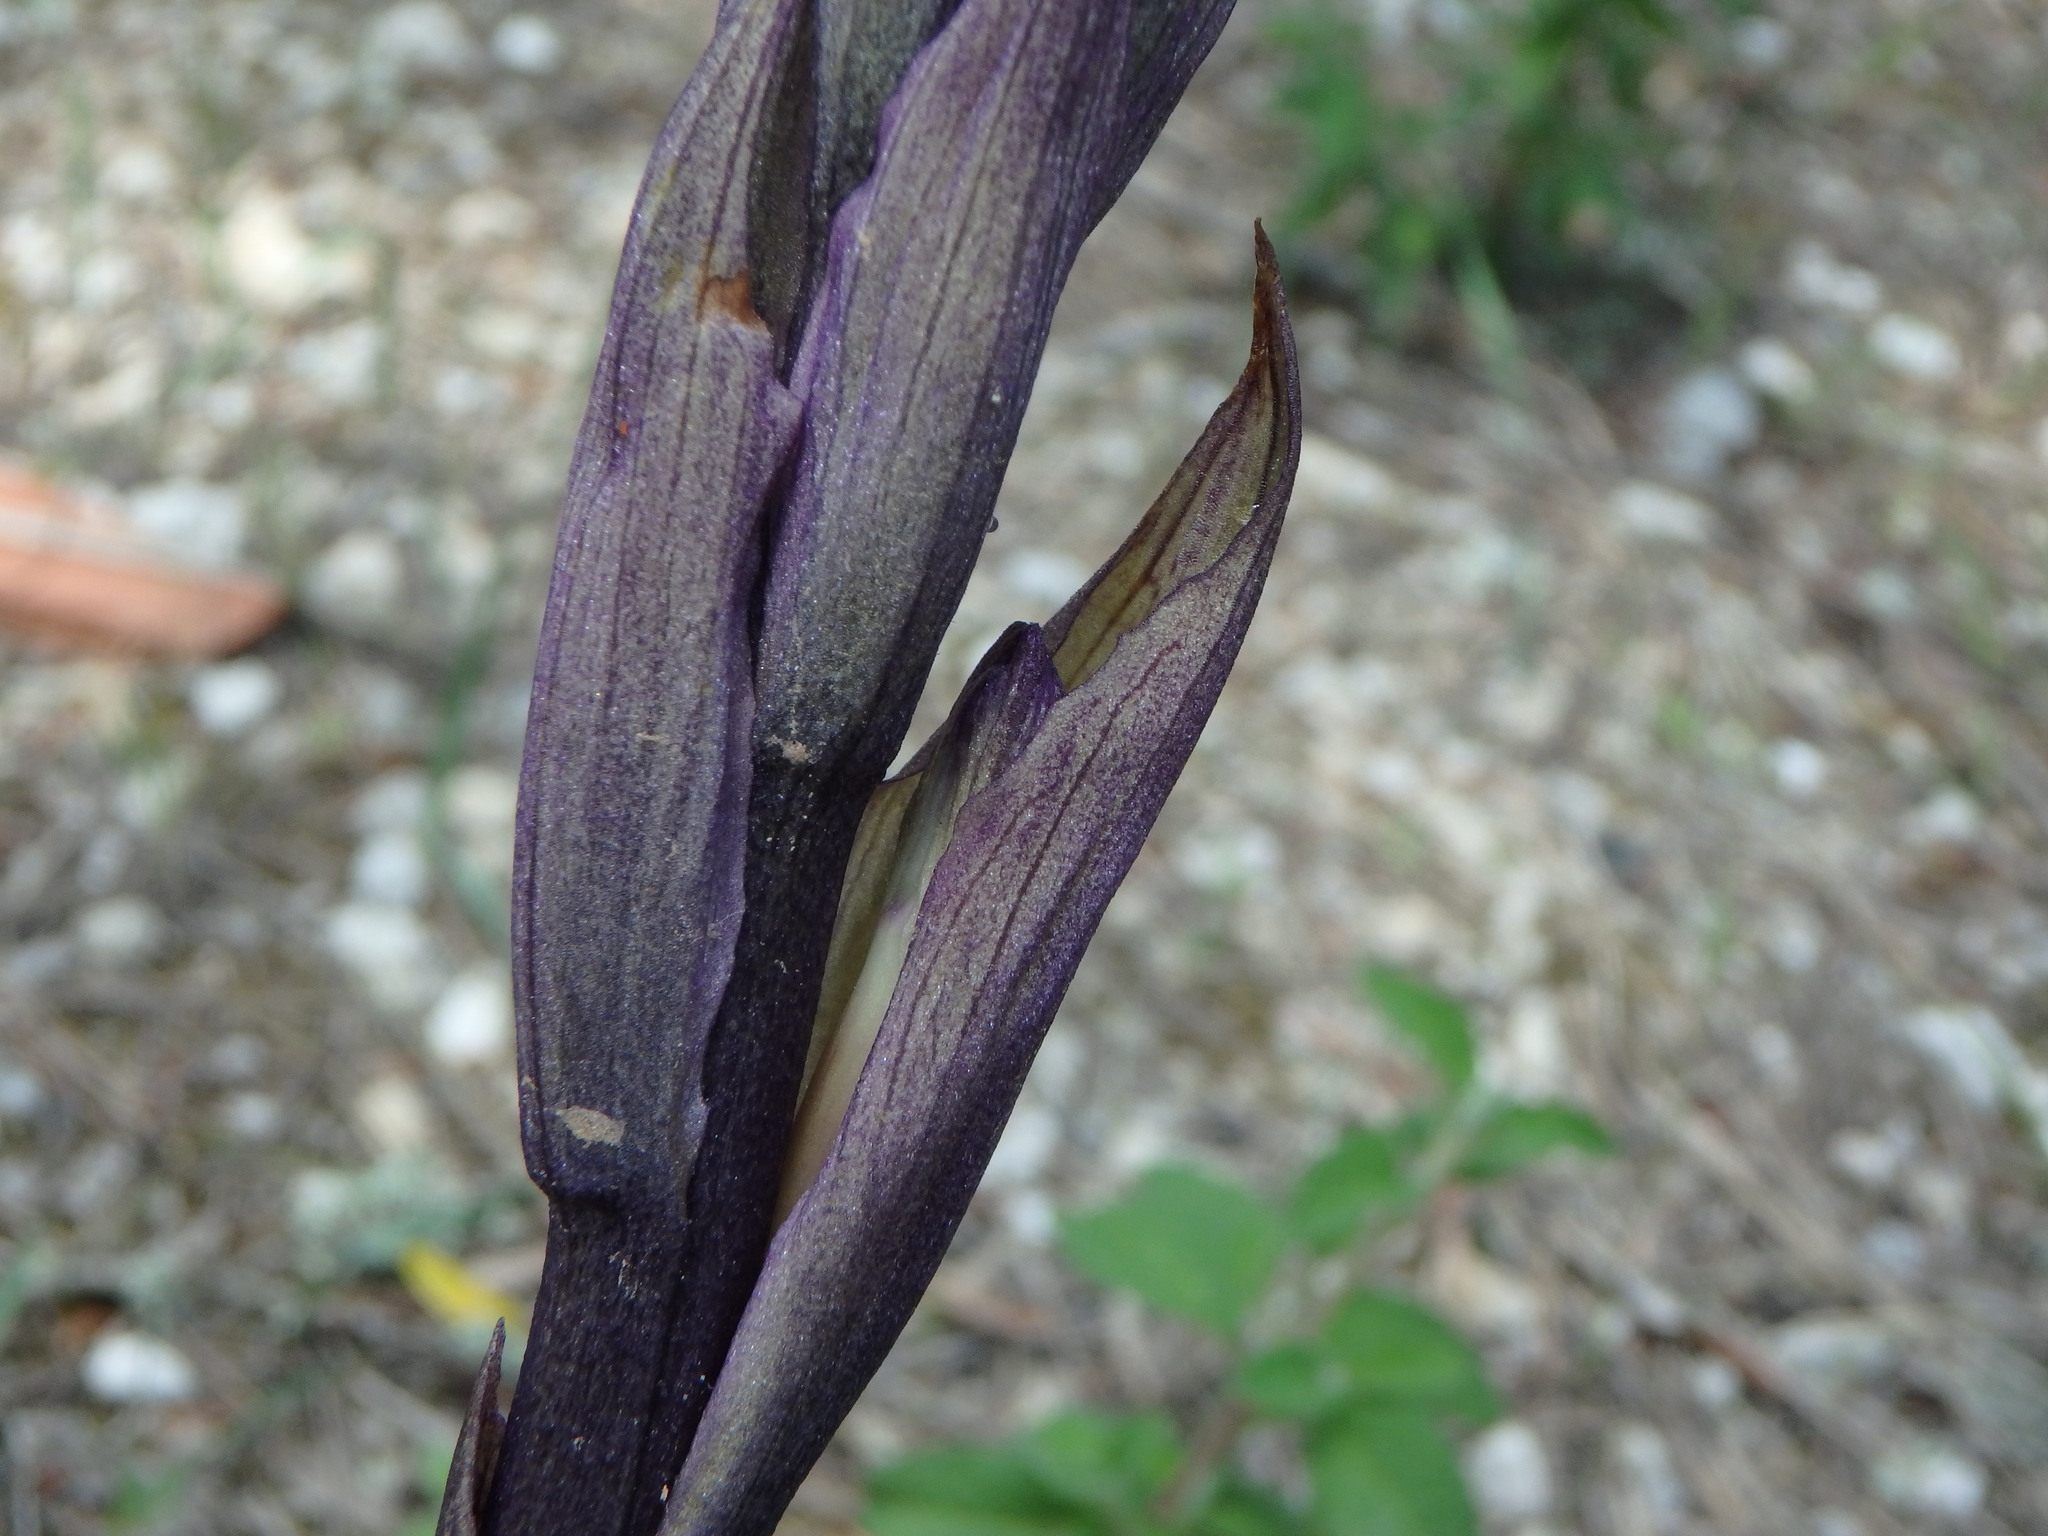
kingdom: Plantae
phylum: Tracheophyta
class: Liliopsida
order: Asparagales
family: Orchidaceae
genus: Limodorum
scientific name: Limodorum abortivum
